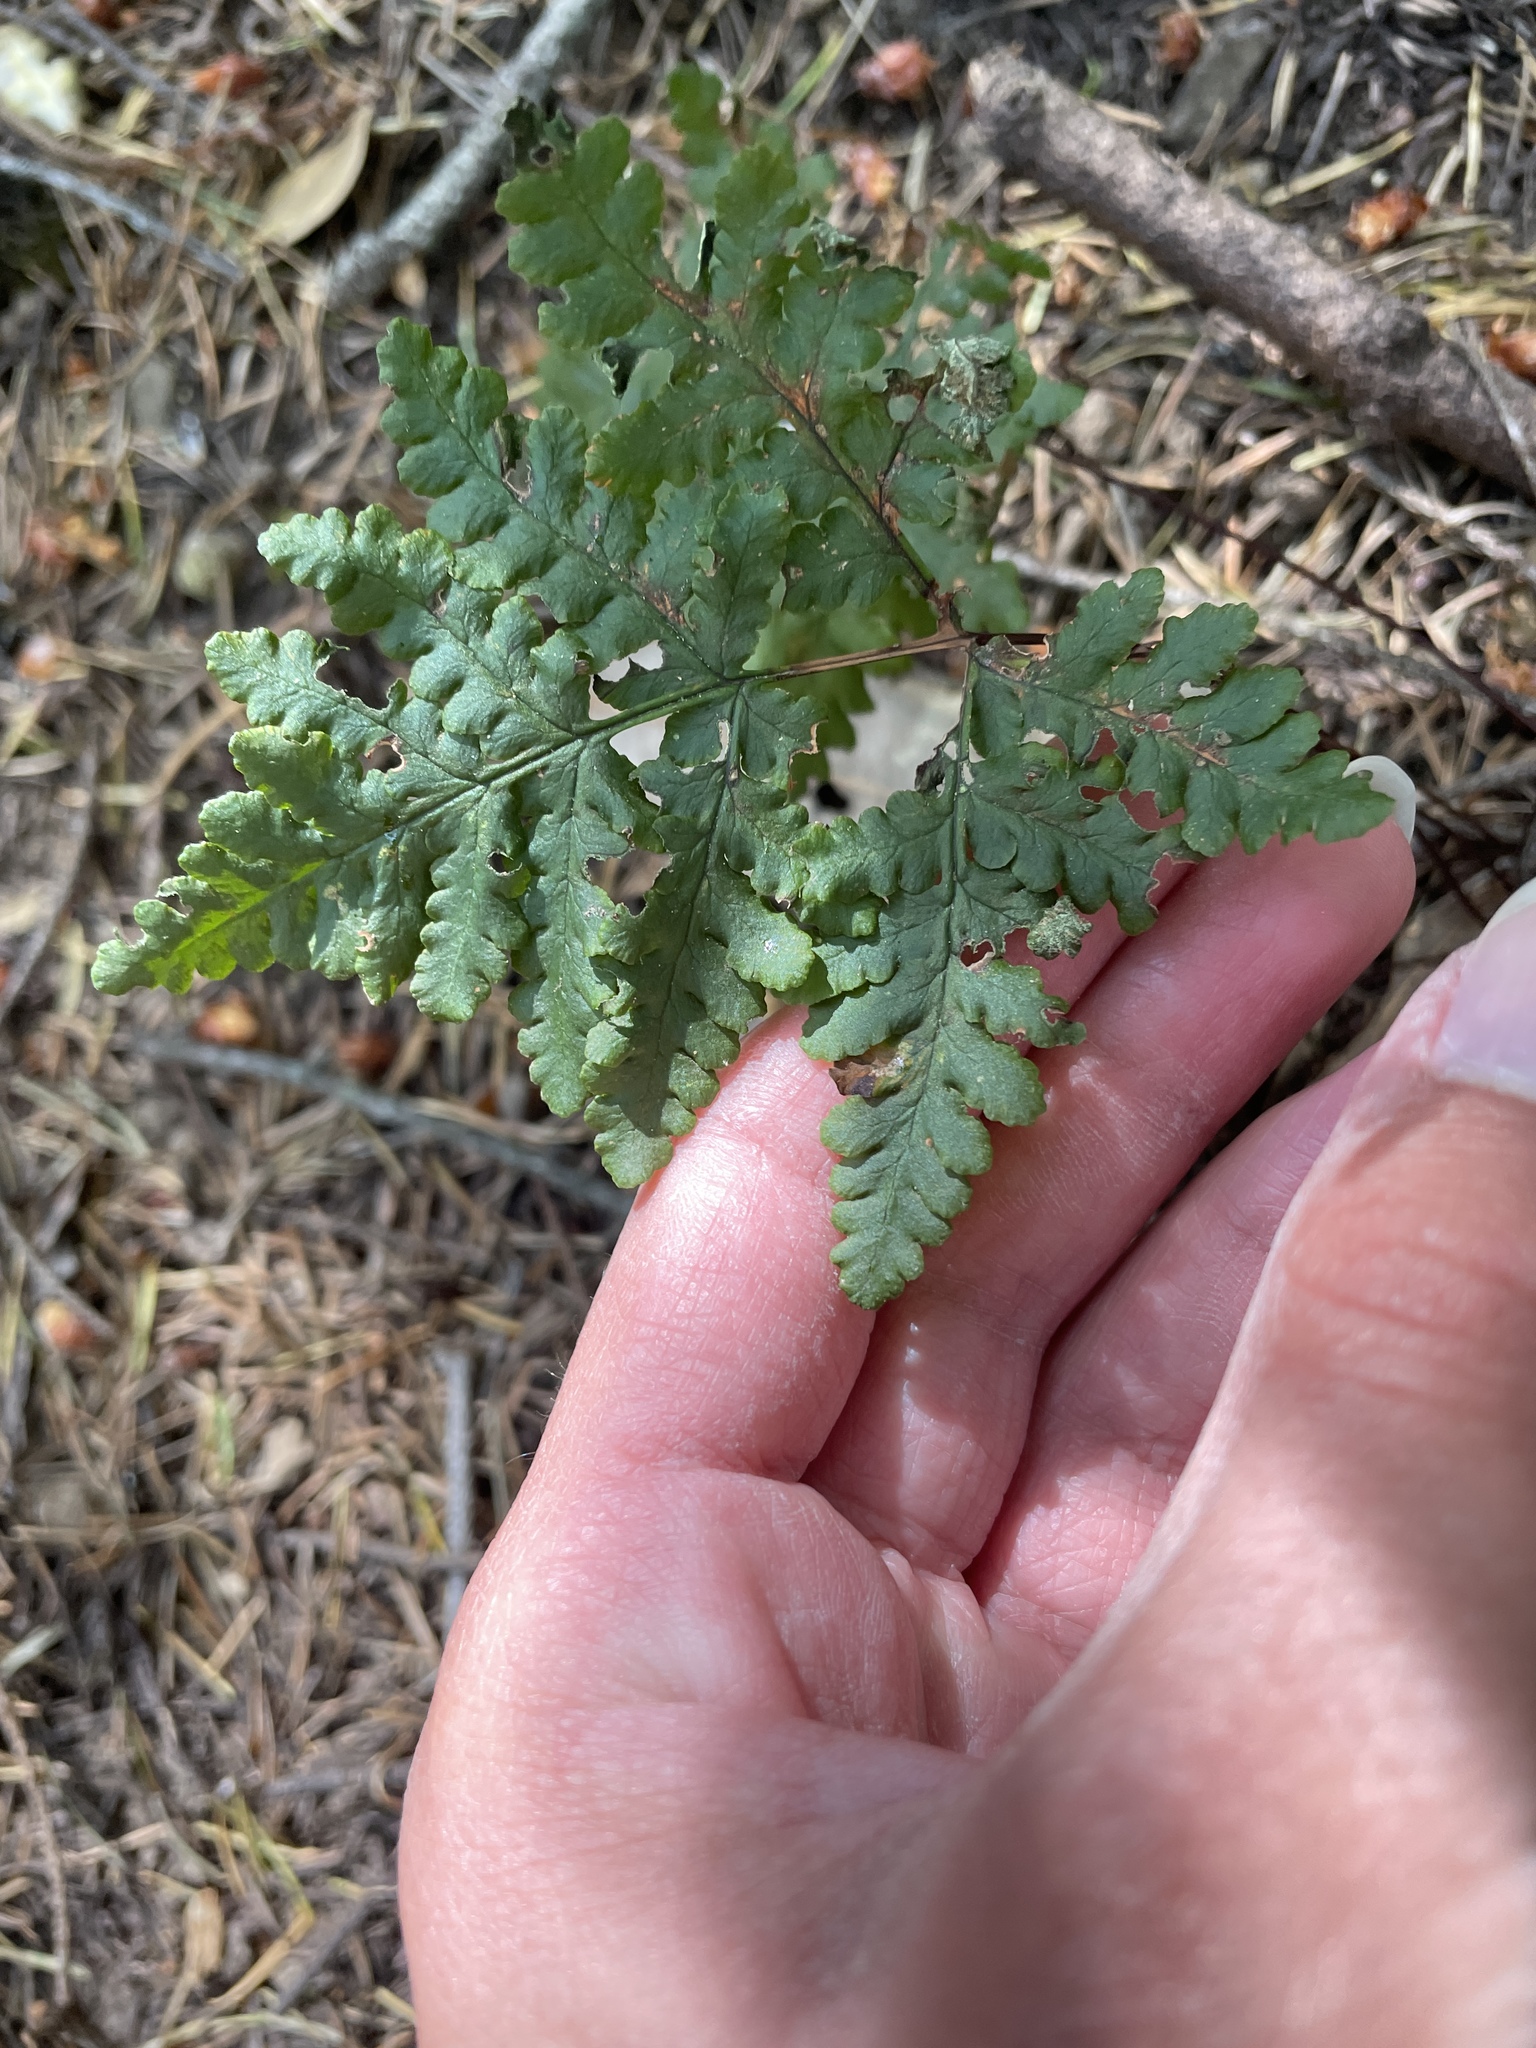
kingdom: Plantae
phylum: Tracheophyta
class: Polypodiopsida
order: Polypodiales
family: Pteridaceae
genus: Pentagramma
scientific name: Pentagramma triangularis
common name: Gold fern
